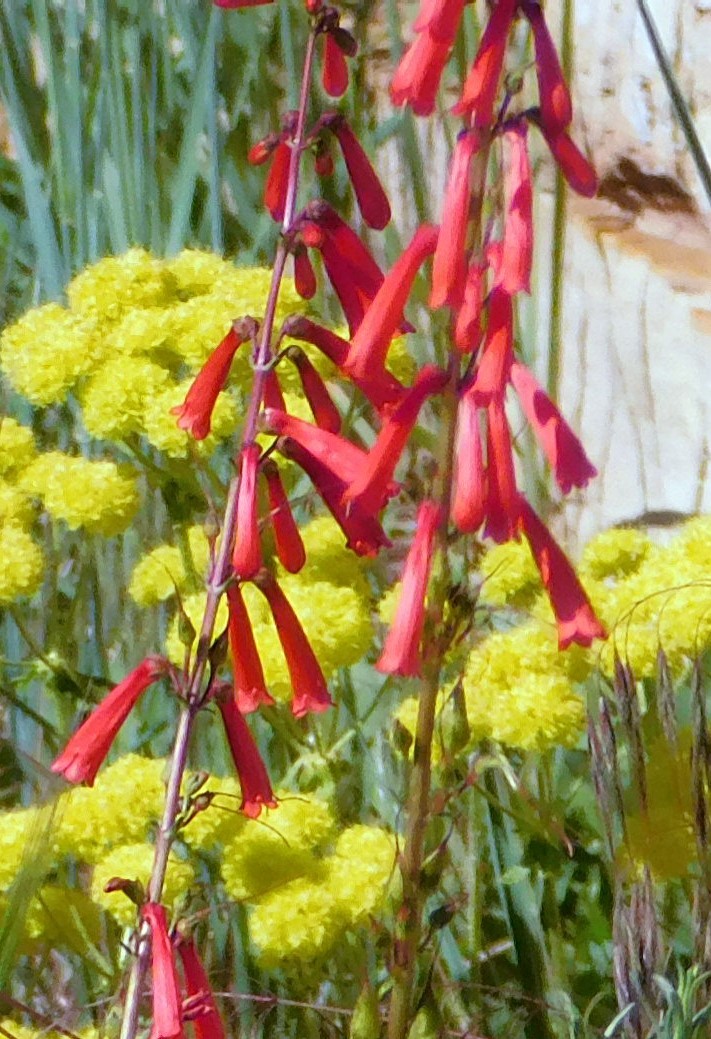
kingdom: Plantae
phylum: Tracheophyta
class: Magnoliopsida
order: Lamiales
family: Plantaginaceae
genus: Penstemon
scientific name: Penstemon eatonii
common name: Eaton's penstemon
